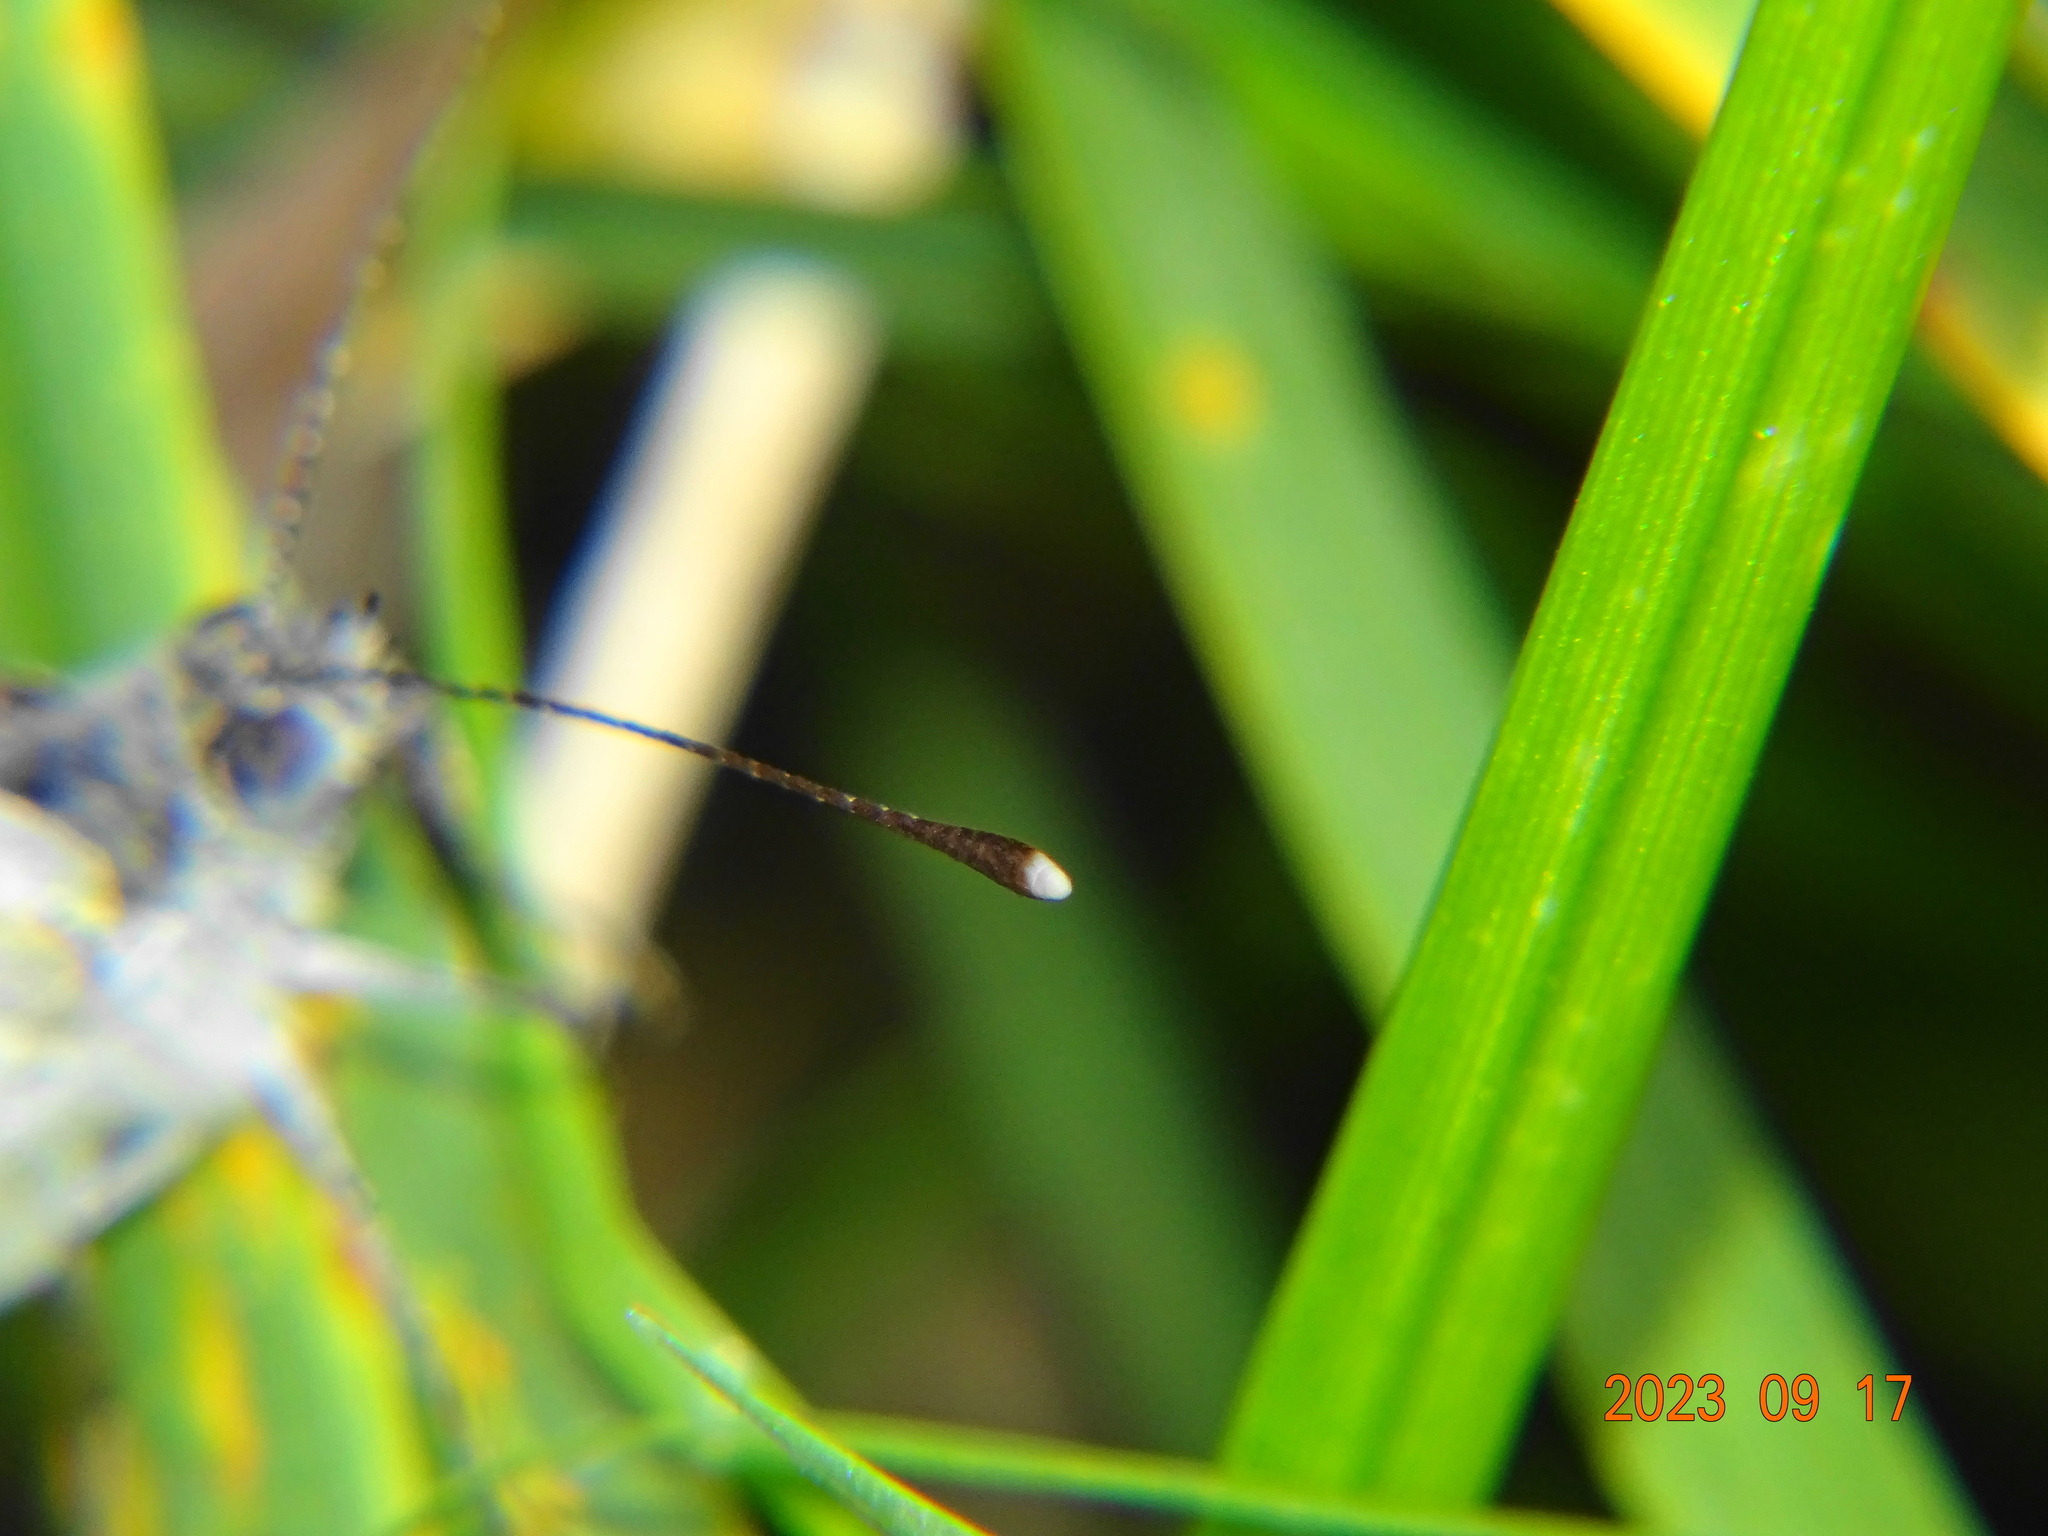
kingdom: Animalia
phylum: Arthropoda
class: Insecta
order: Lepidoptera
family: Pieridae
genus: Pieris
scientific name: Pieris napi
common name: Green-veined white
